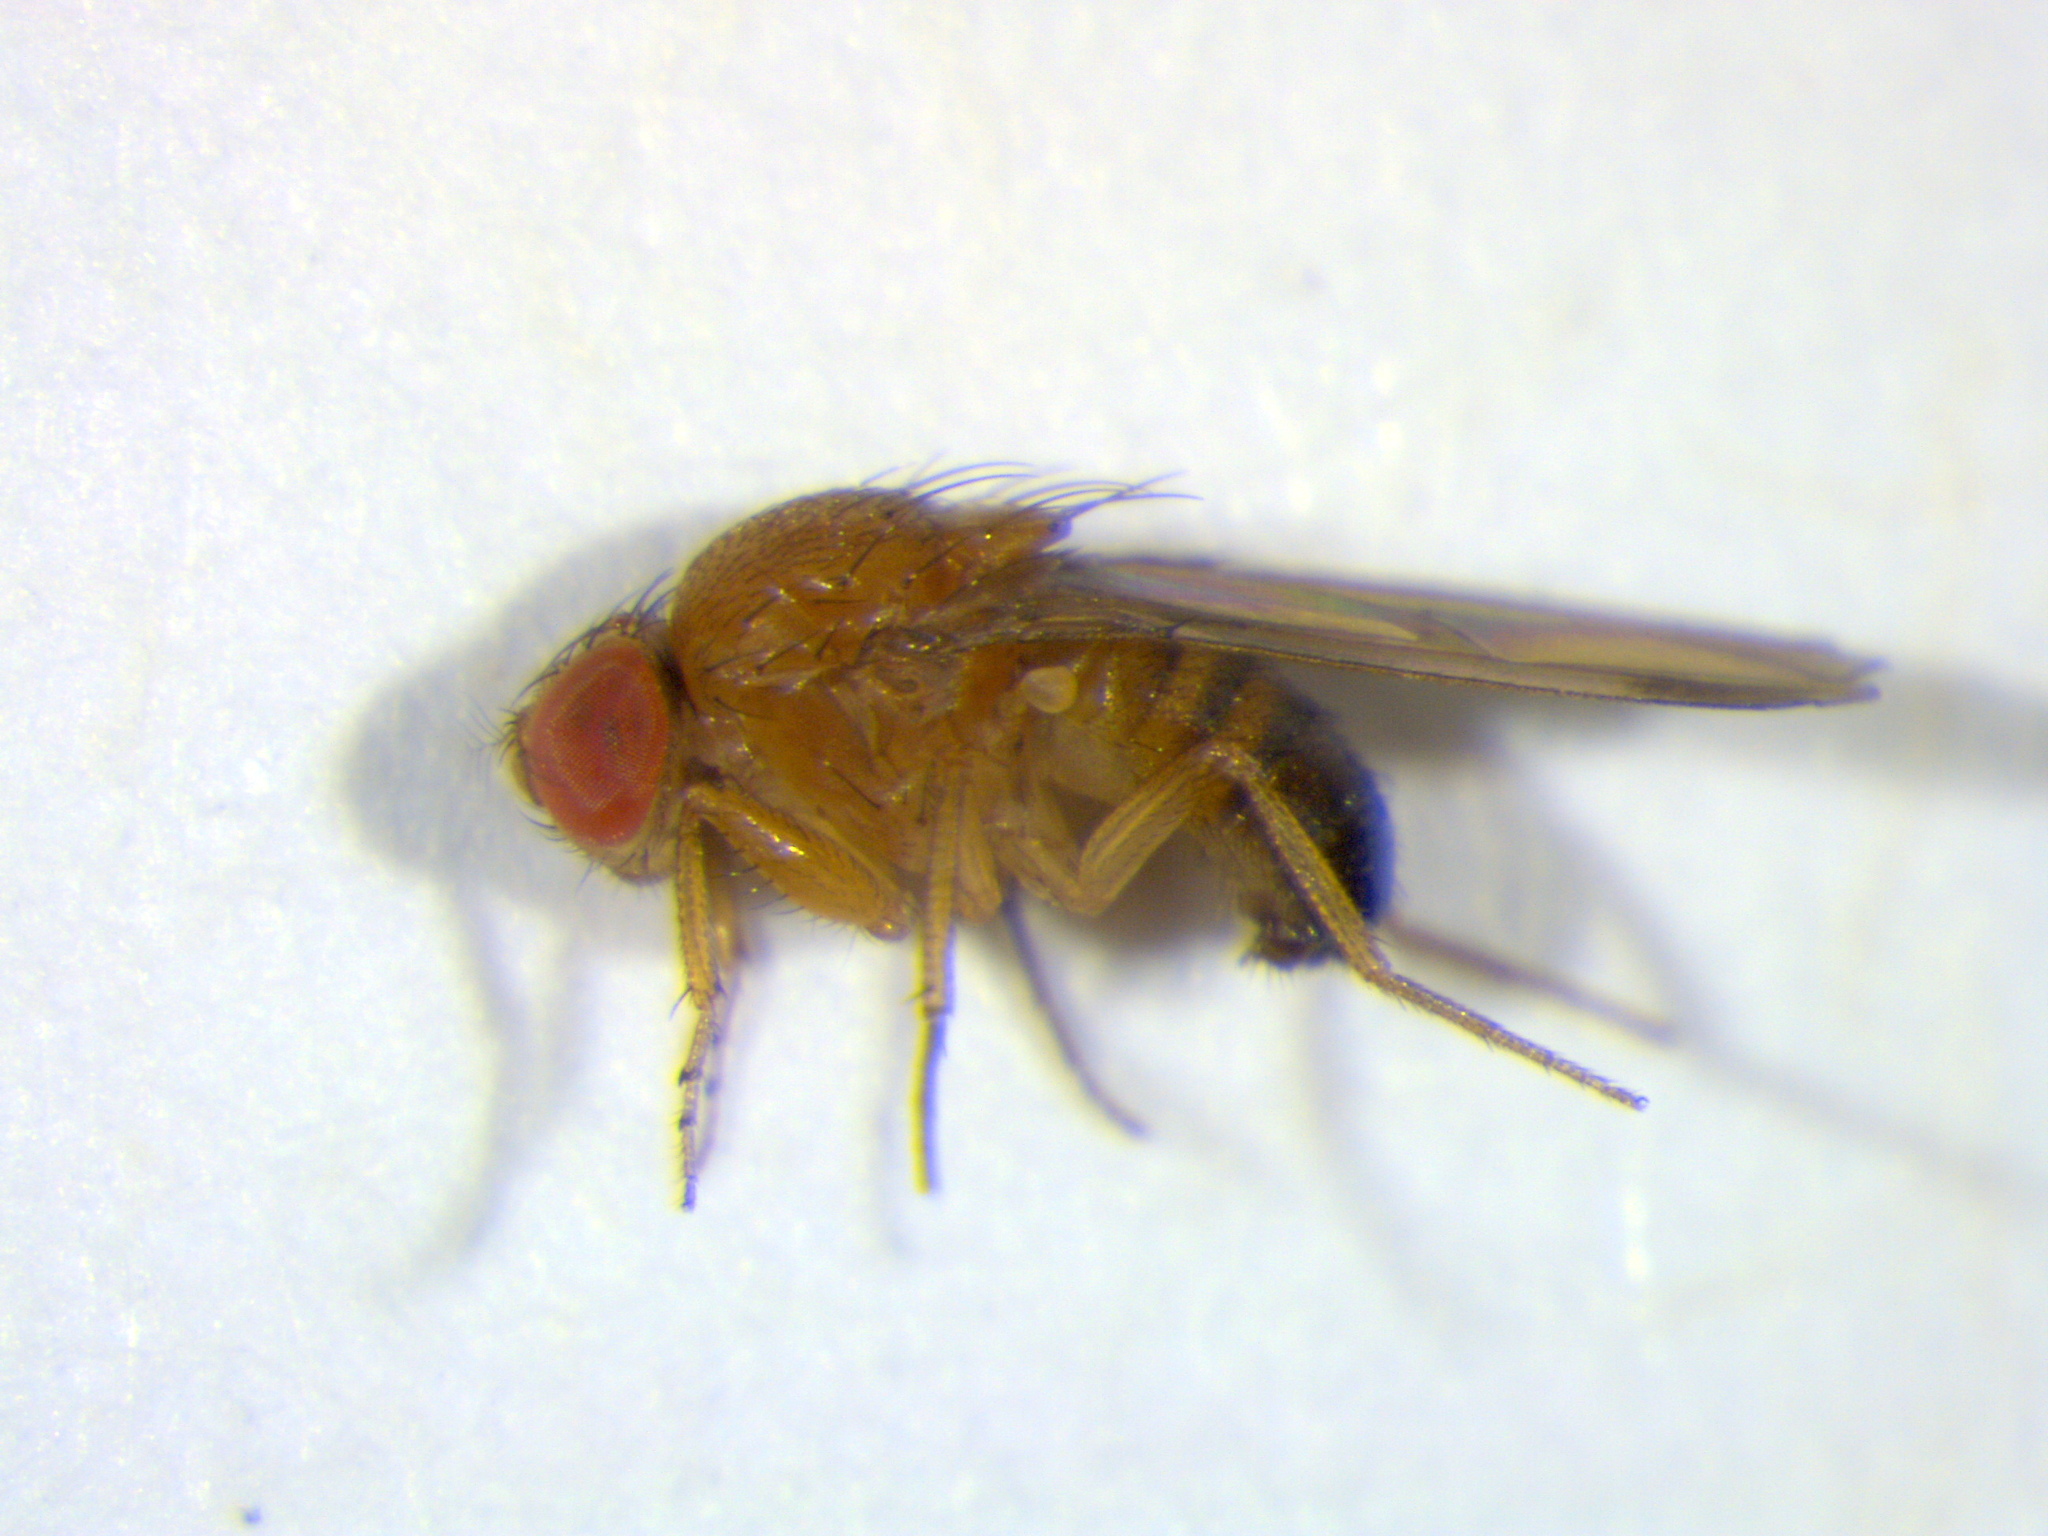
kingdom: Animalia
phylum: Arthropoda
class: Insecta
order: Diptera
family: Drosophilidae
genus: Drosophila
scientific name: Drosophila suzukii
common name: Spotted-wing drosophila
